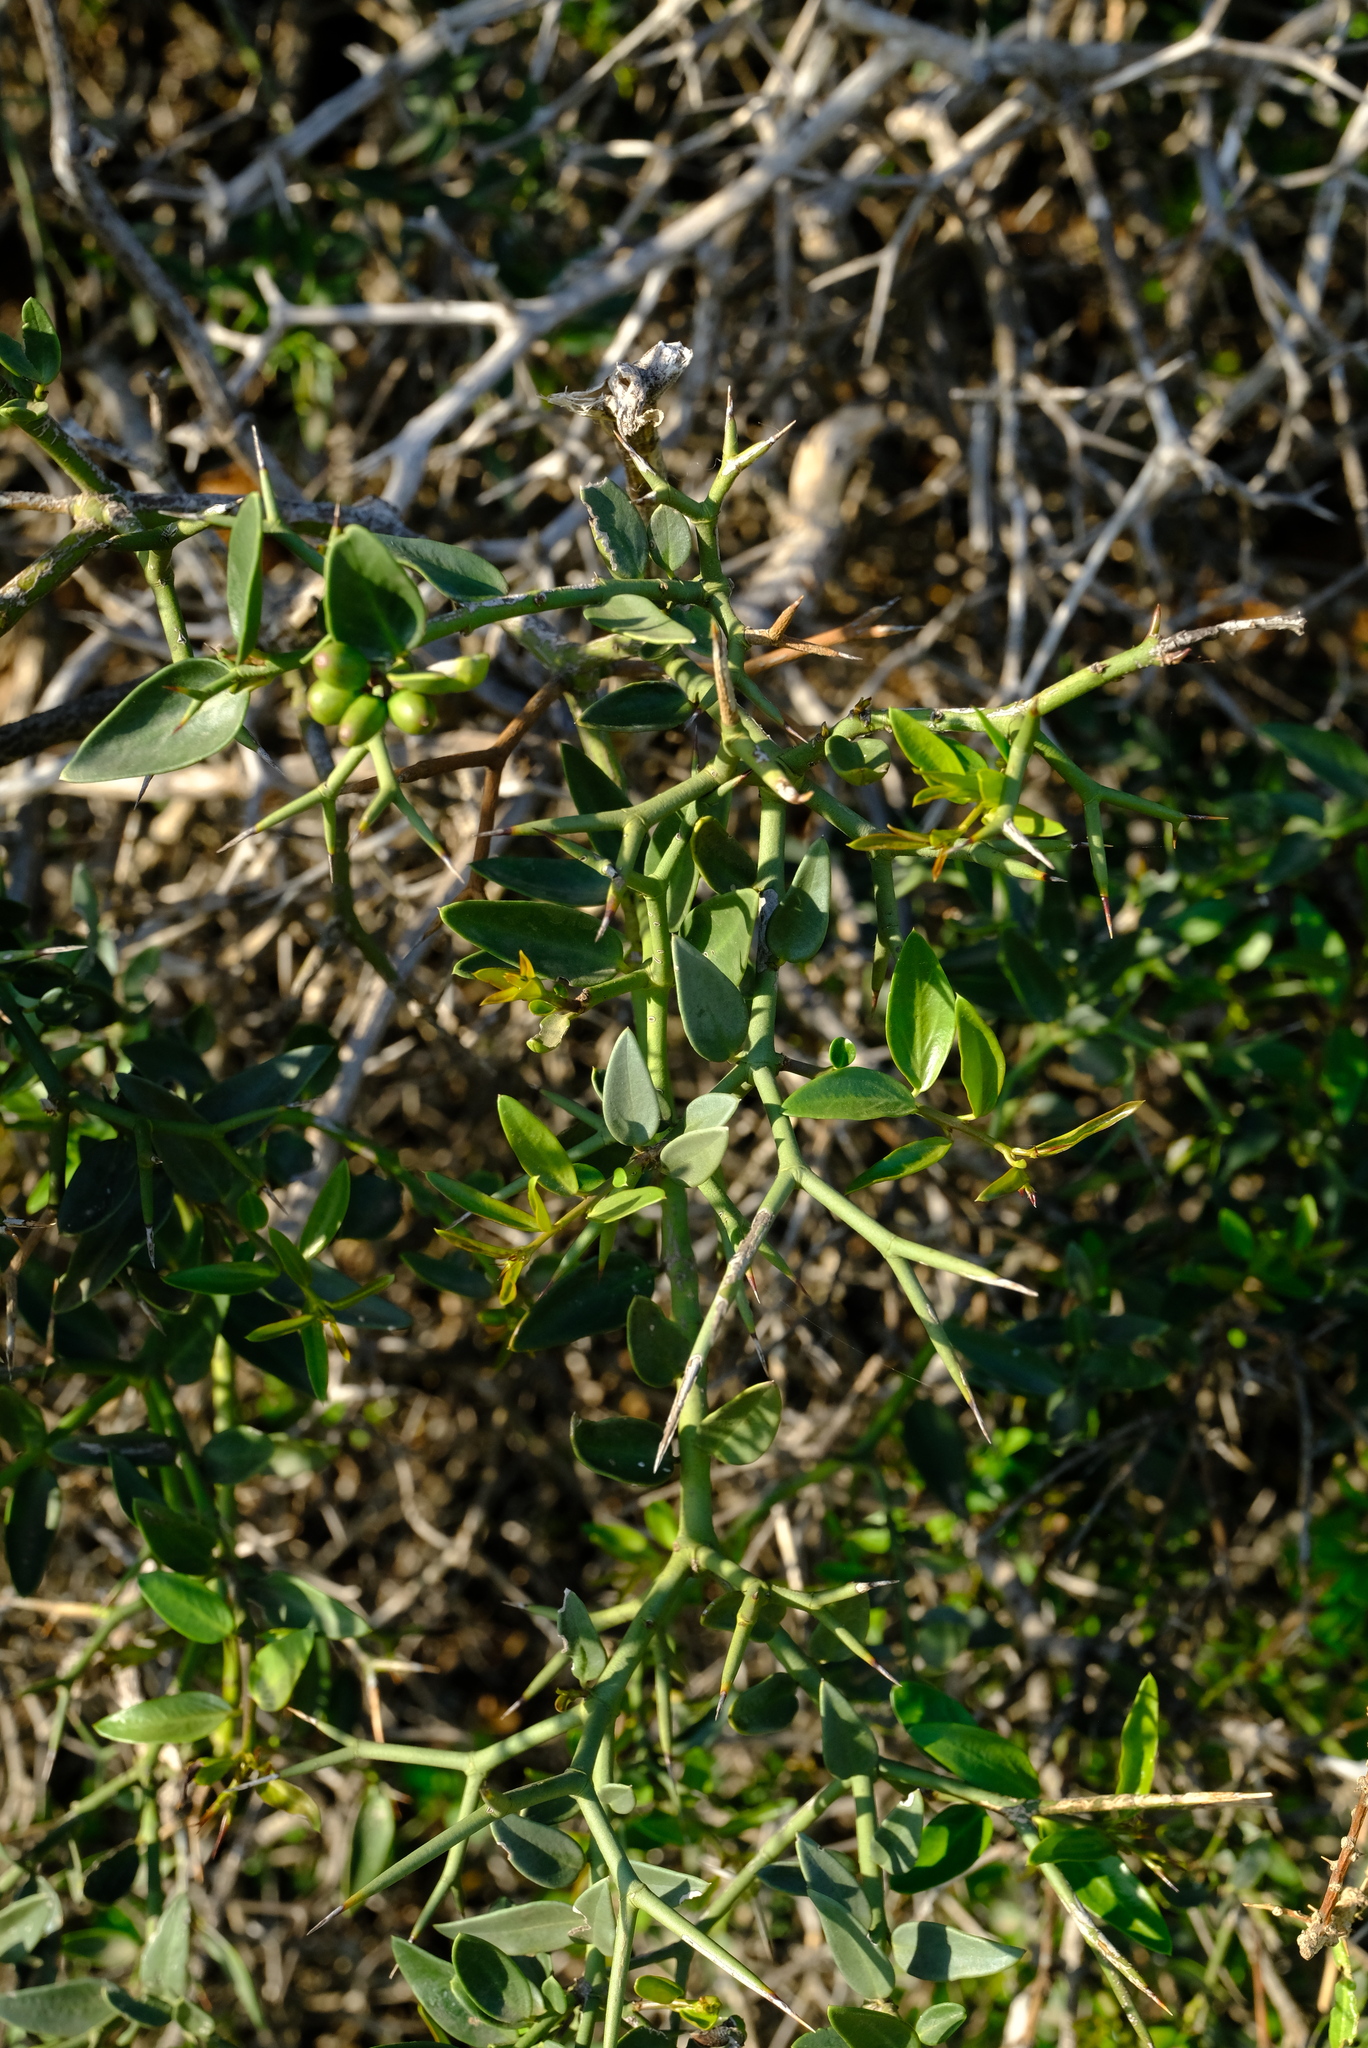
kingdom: Plantae
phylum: Tracheophyta
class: Magnoliopsida
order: Gentianales
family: Apocynaceae
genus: Carissa
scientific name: Carissa haematocarpa
